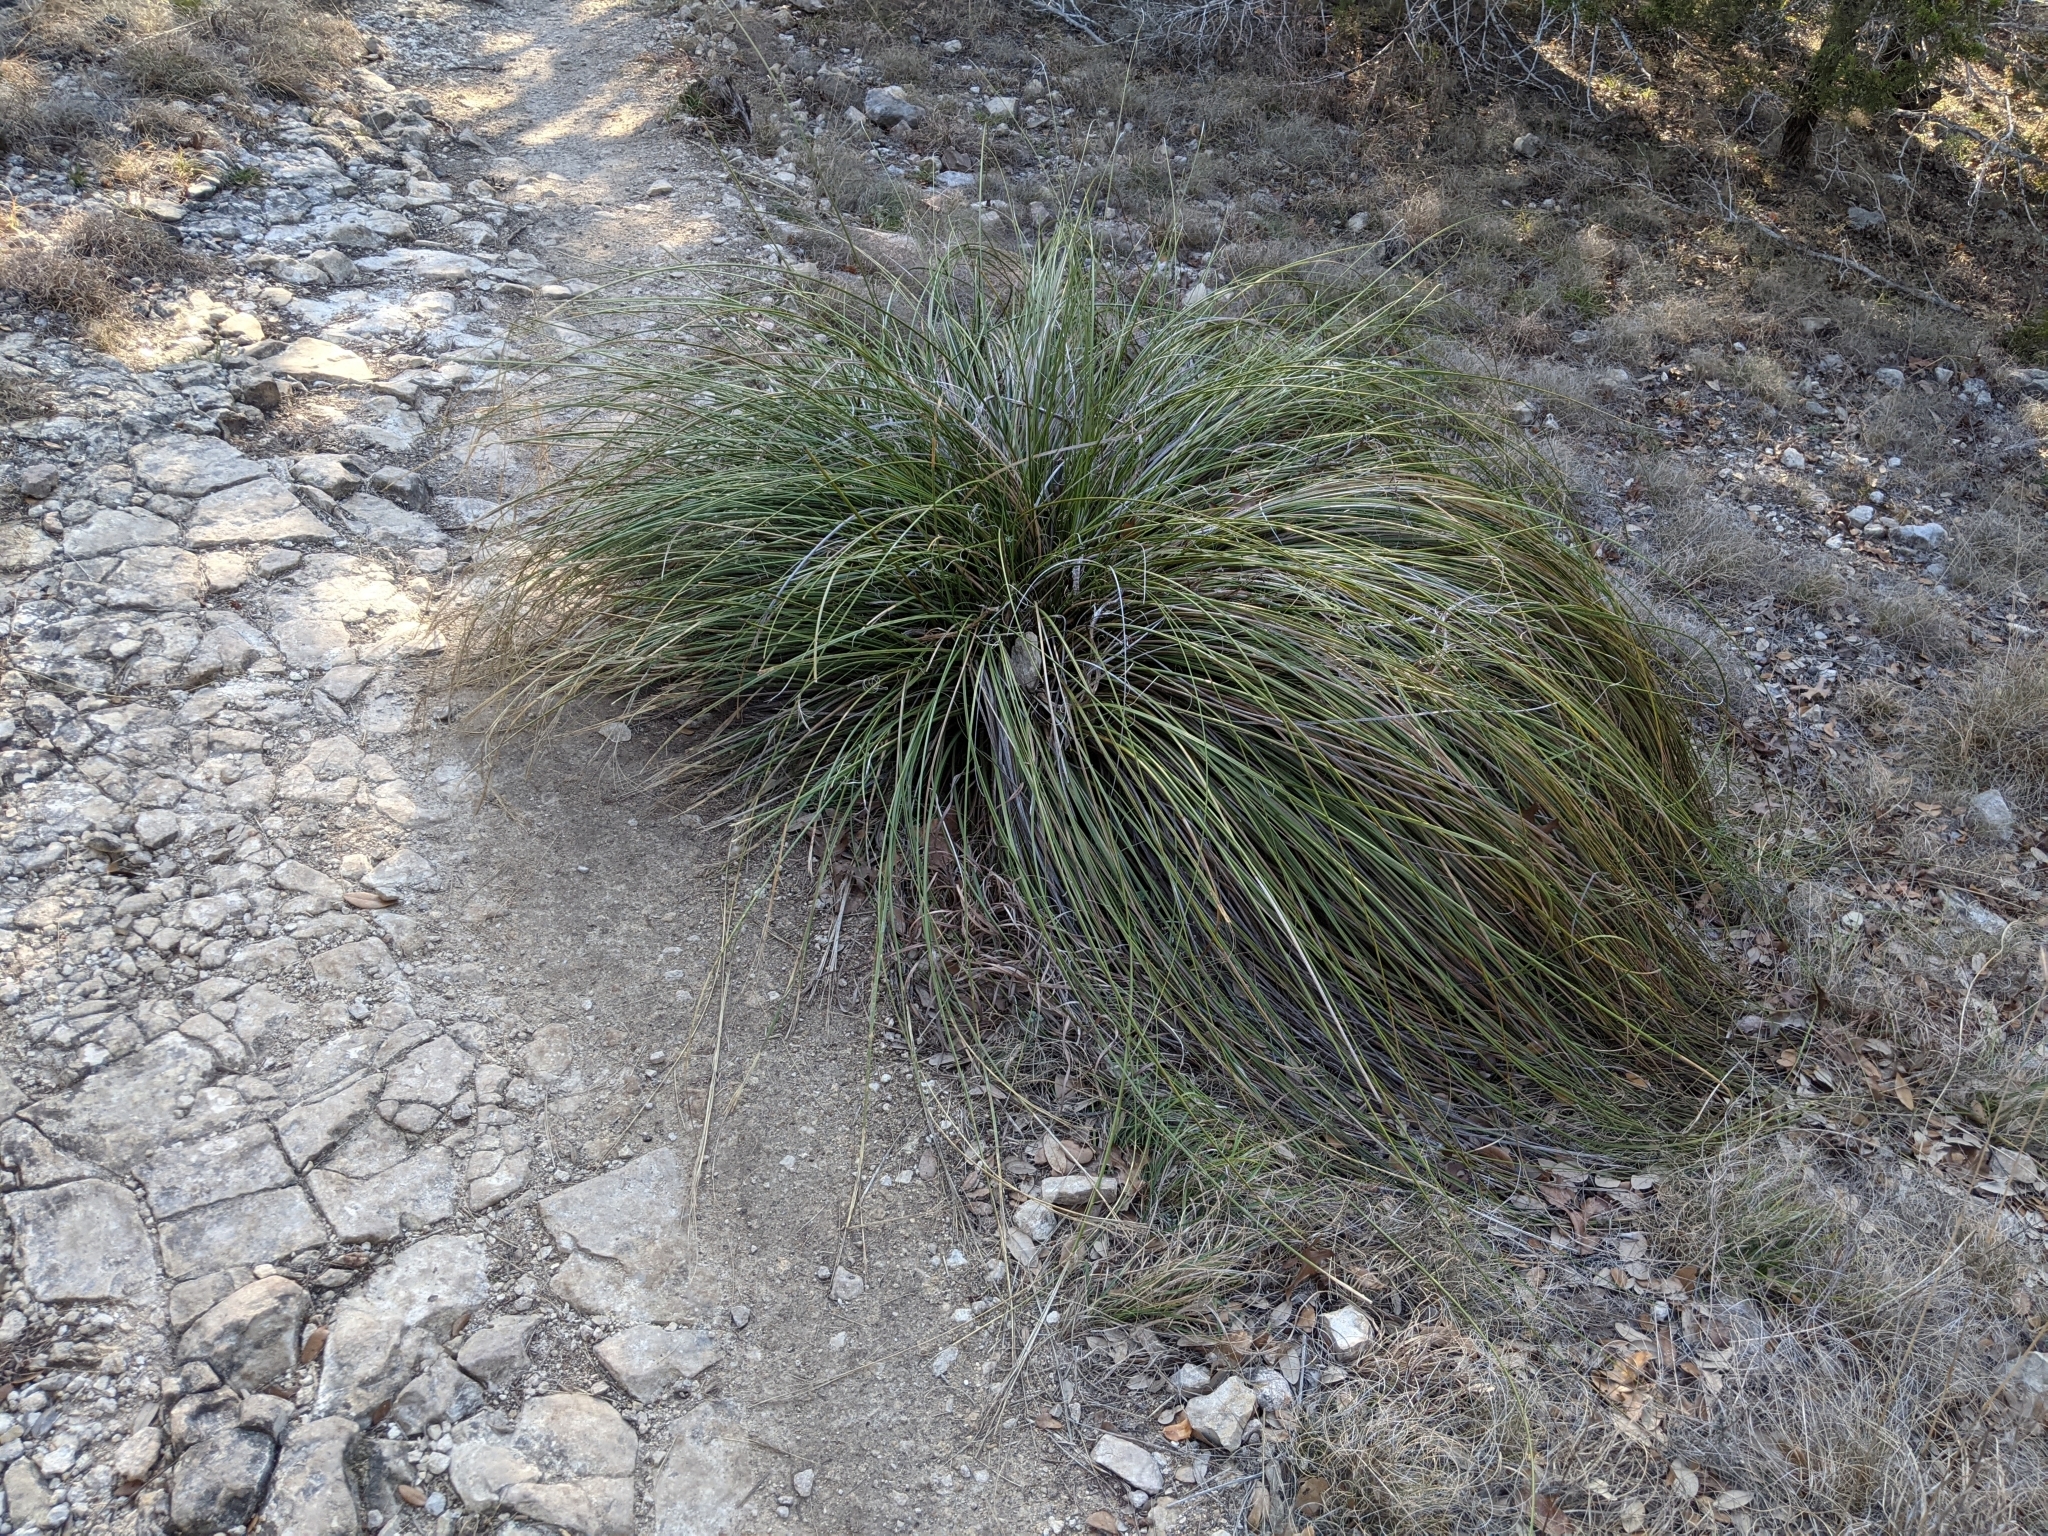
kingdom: Plantae
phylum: Tracheophyta
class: Liliopsida
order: Asparagales
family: Asparagaceae
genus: Nolina
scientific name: Nolina texana
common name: Texas sacahuiste
